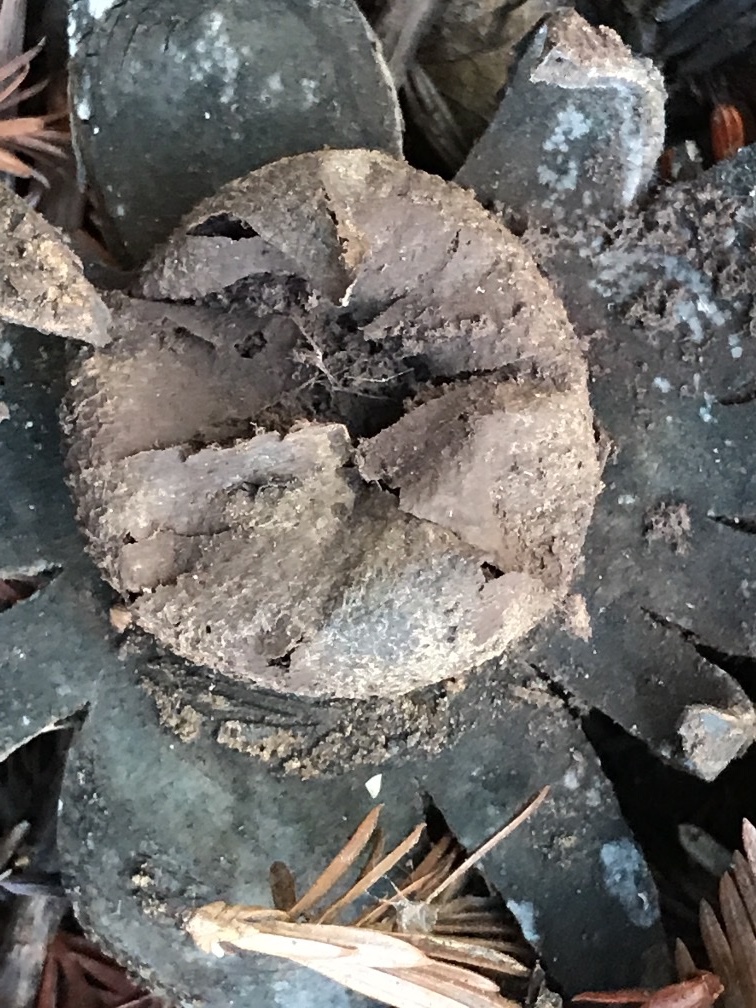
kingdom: Fungi
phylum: Basidiomycota
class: Agaricomycetes
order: Boletales
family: Diplocystidiaceae
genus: Astraeus
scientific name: Astraeus hygrometricus
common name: Barometer earthstar
